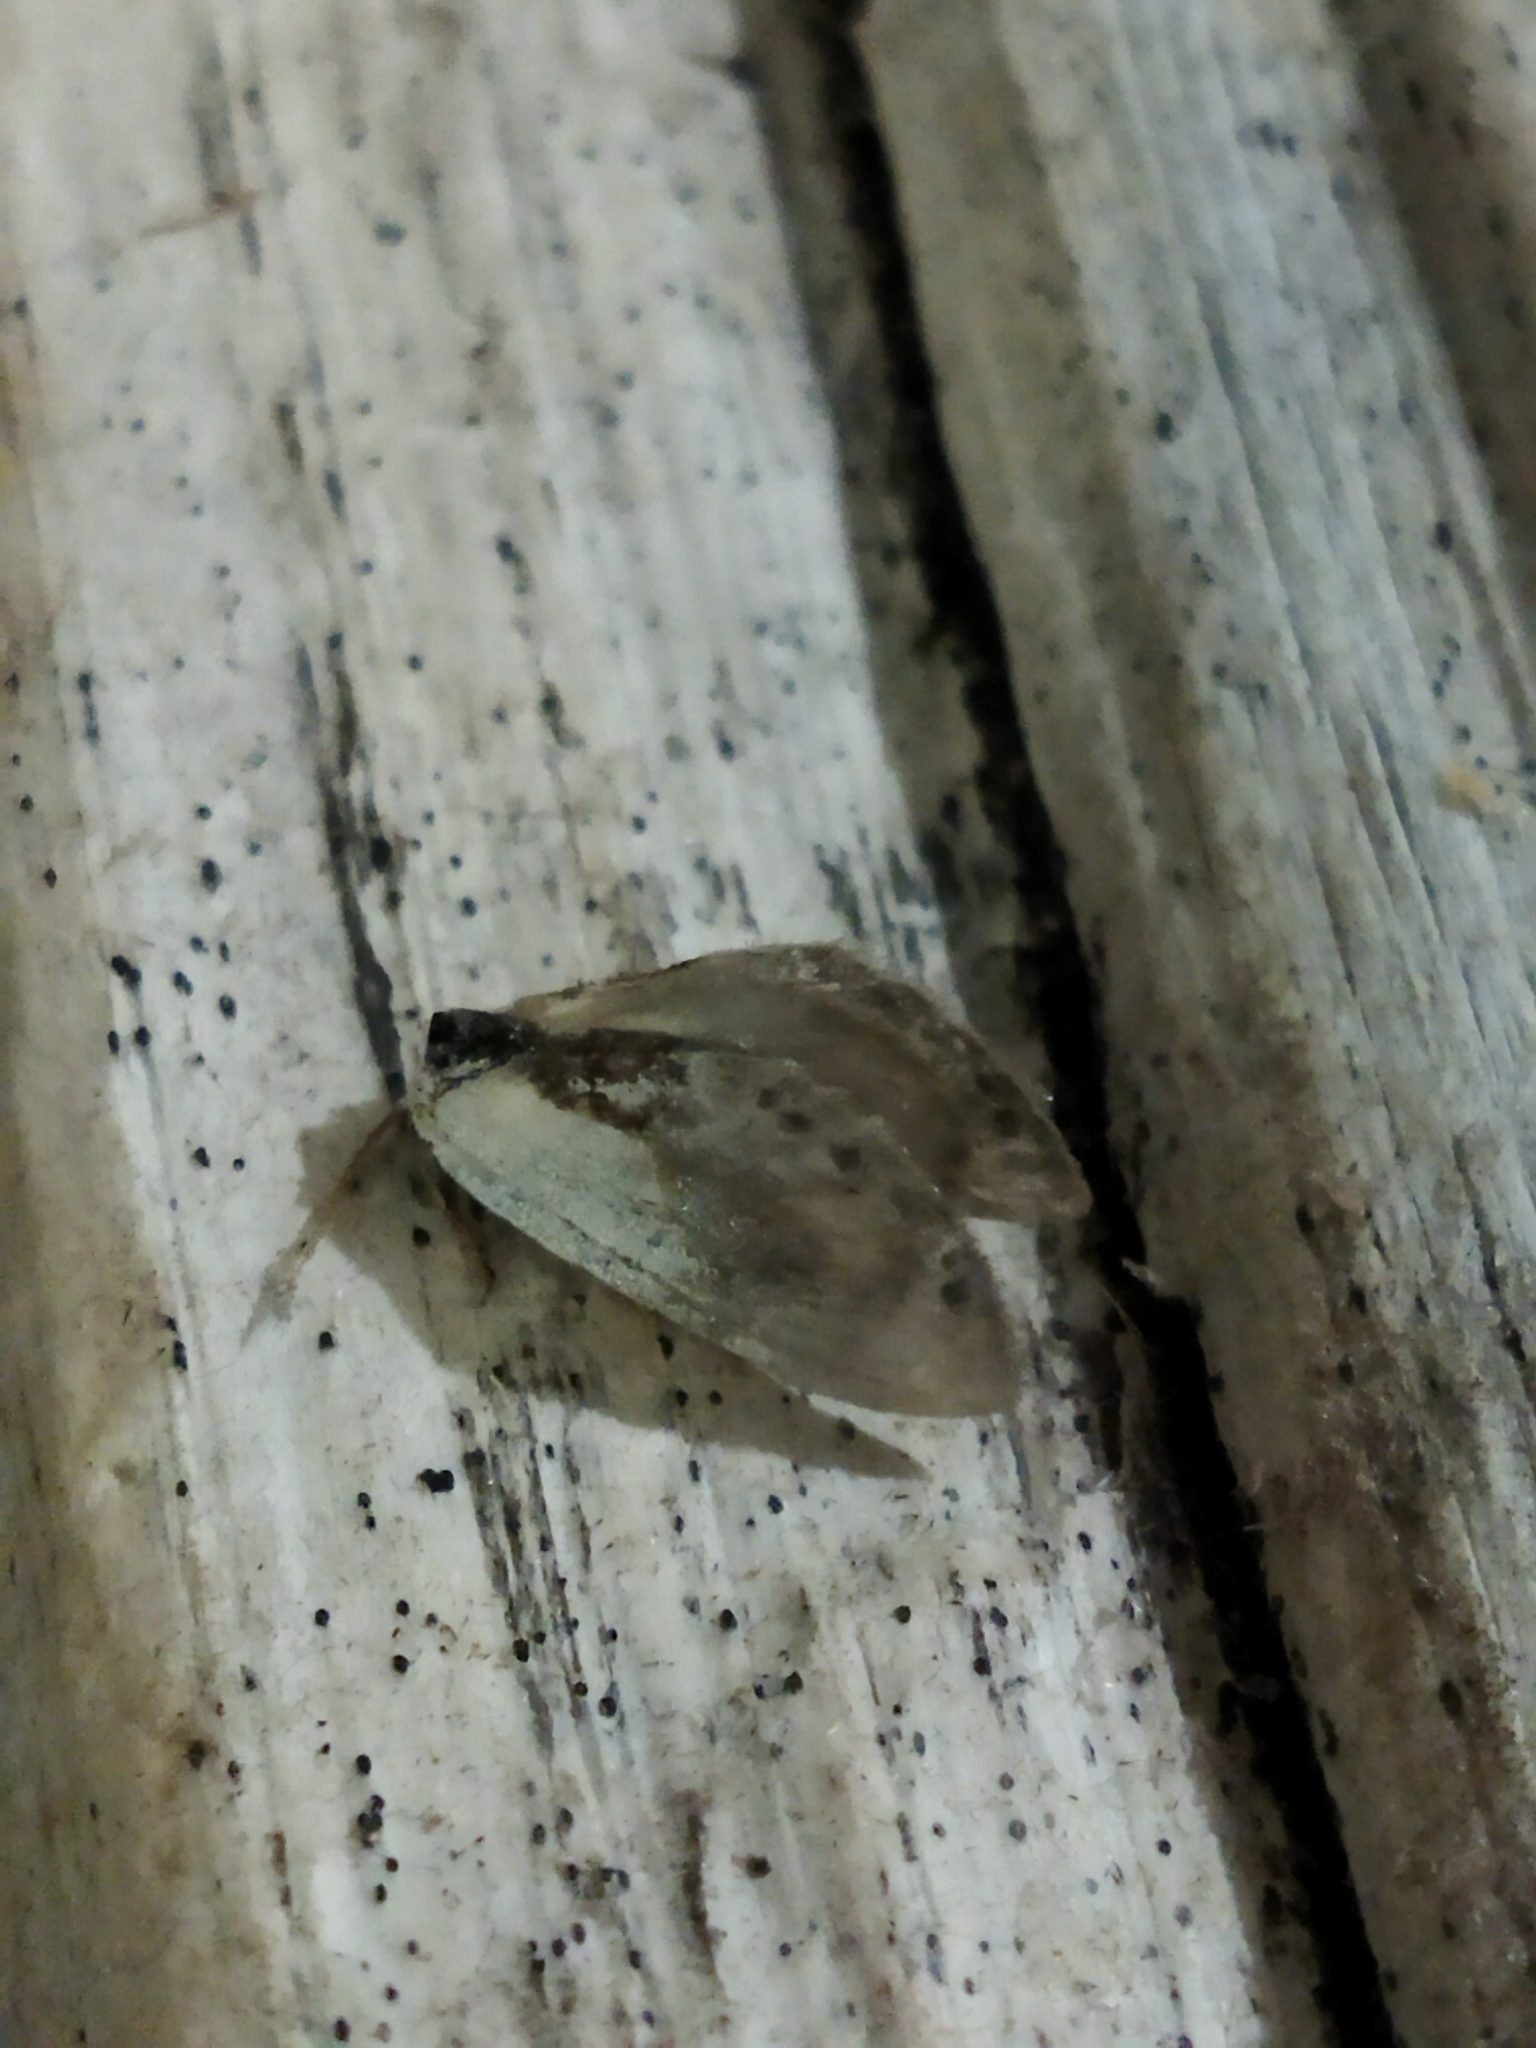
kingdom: Animalia
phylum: Arthropoda
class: Insecta
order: Lepidoptera
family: Drepanidae
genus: Cilix
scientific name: Cilix glaucata
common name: Chinese character
